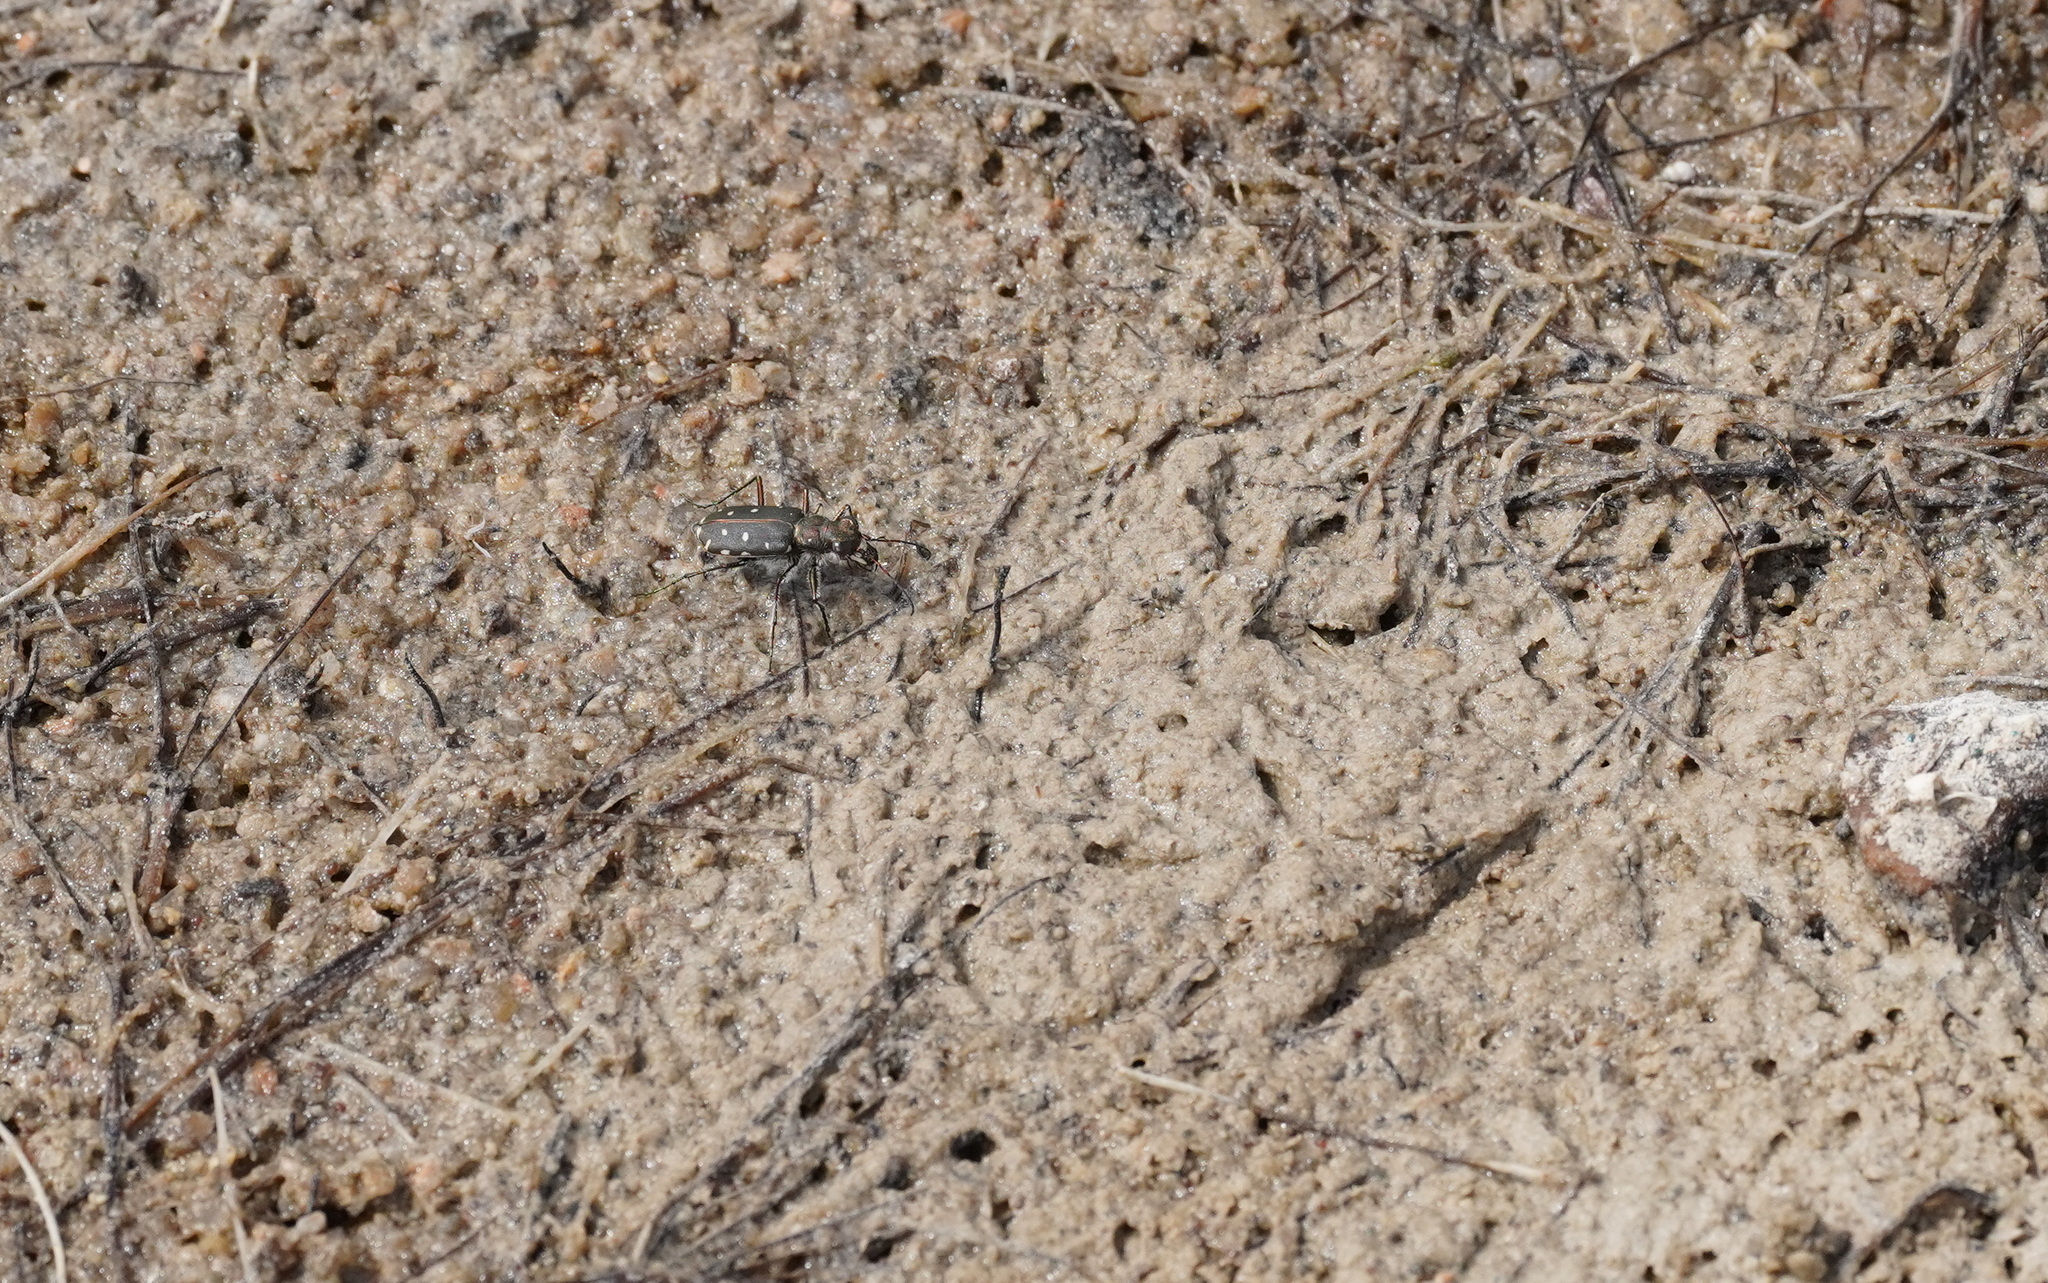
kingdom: Animalia
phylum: Arthropoda
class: Insecta
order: Coleoptera
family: Carabidae
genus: Cicindela
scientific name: Cicindela littoralis
